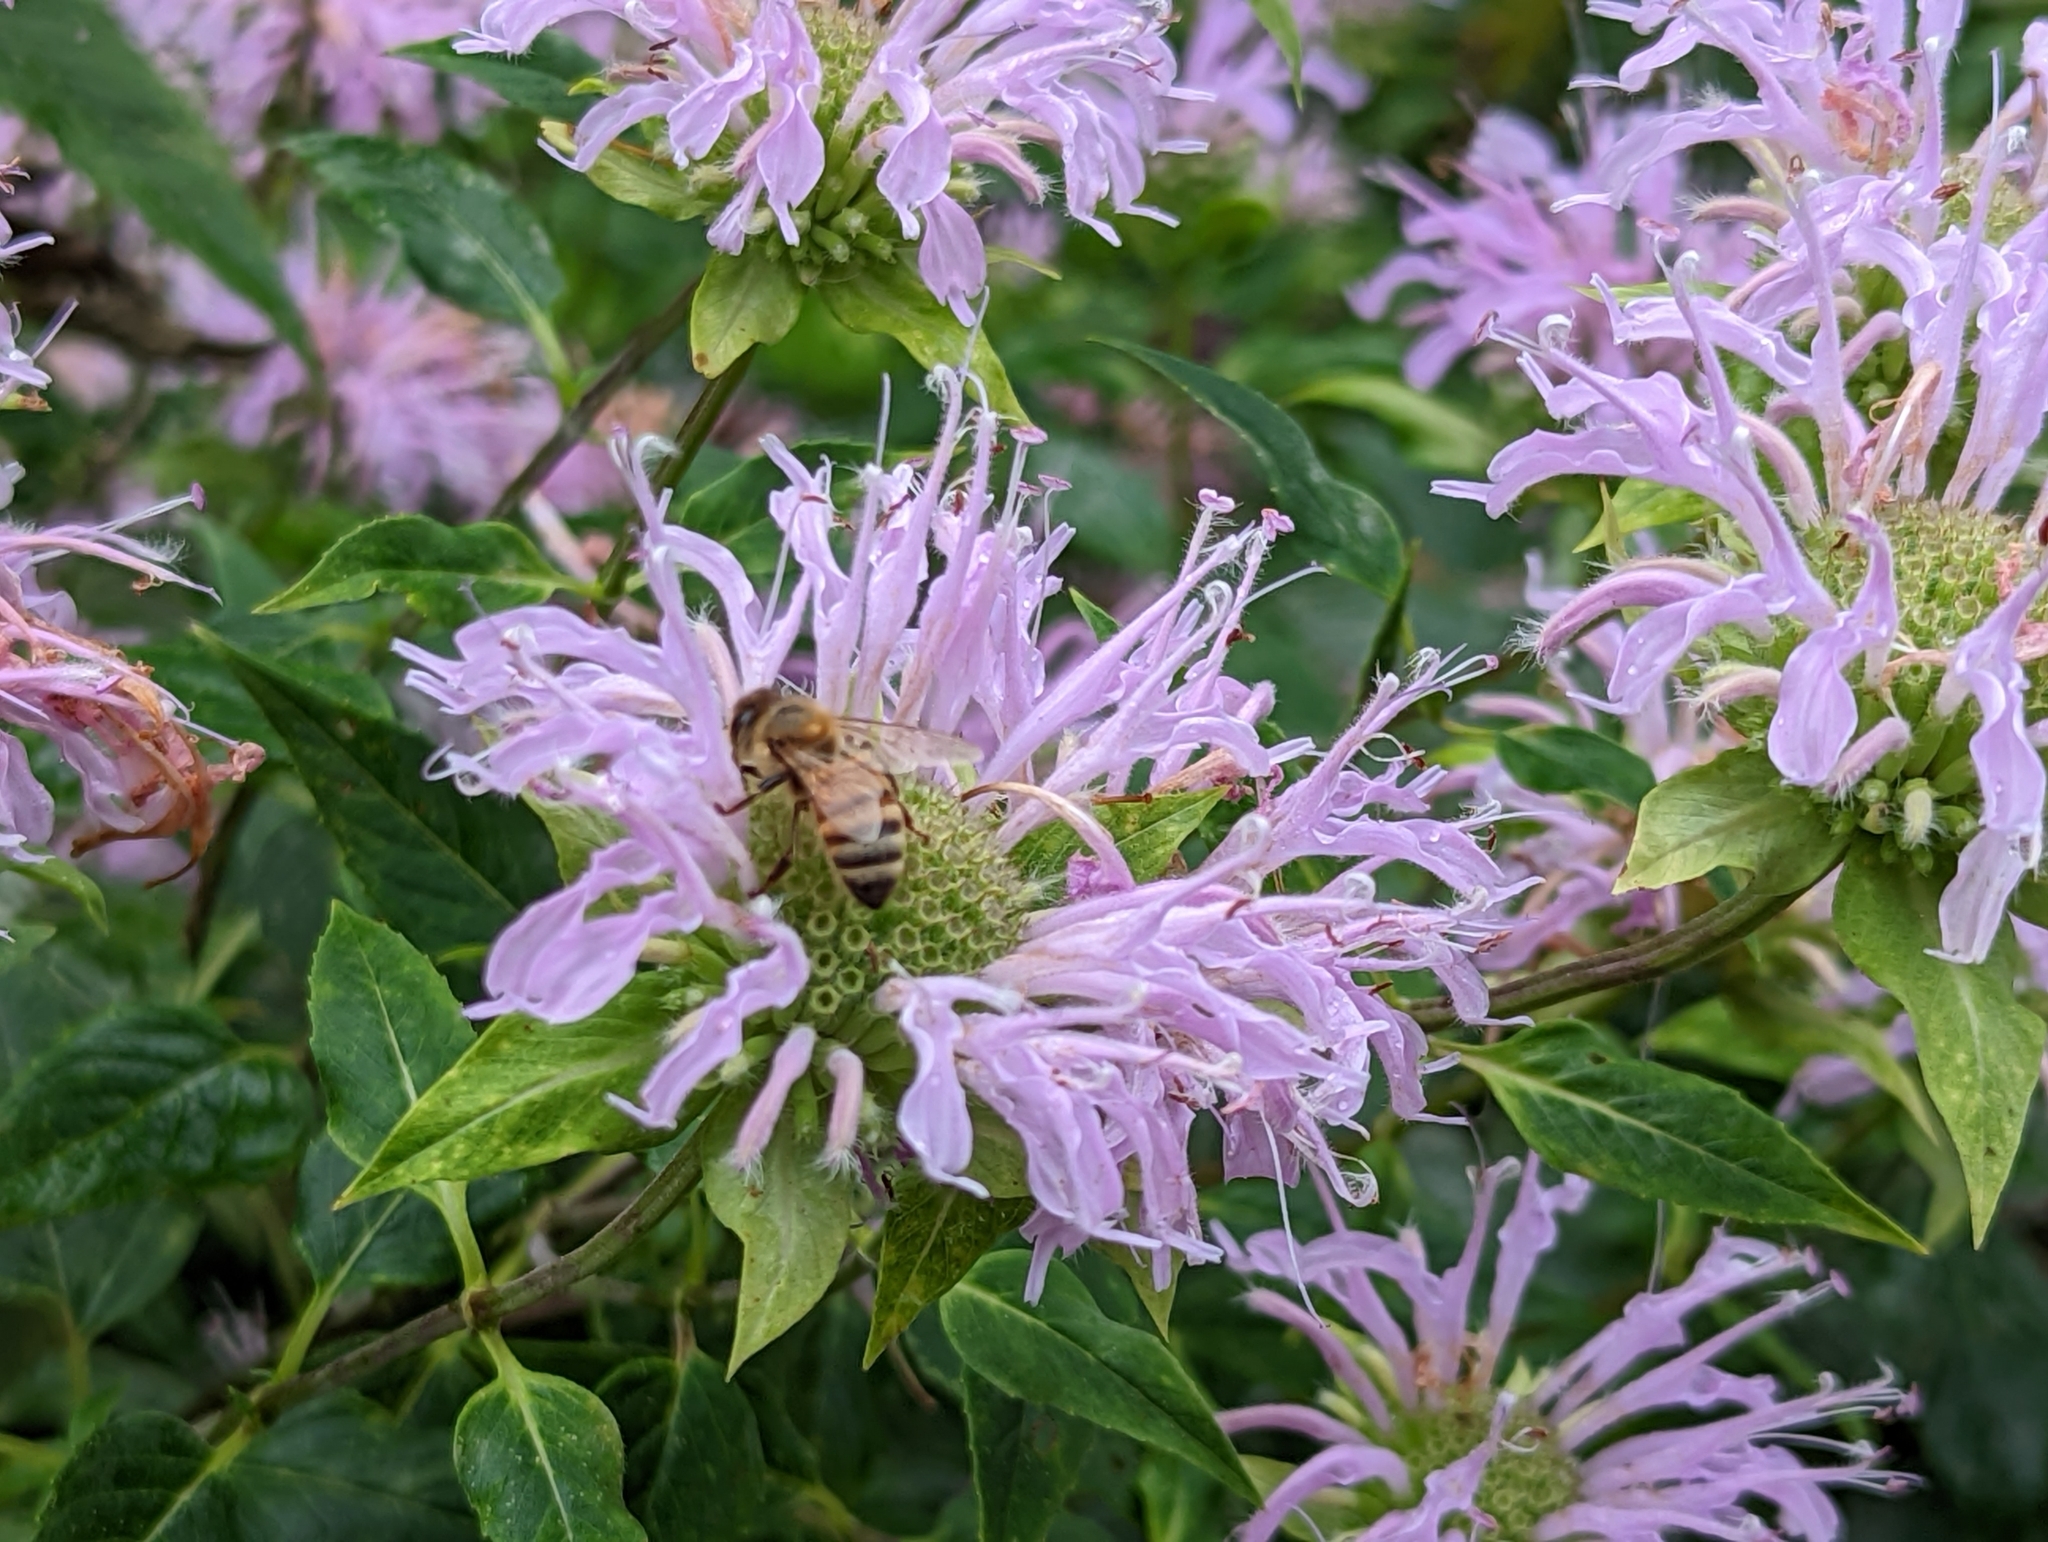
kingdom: Animalia
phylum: Arthropoda
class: Insecta
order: Hymenoptera
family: Apidae
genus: Apis
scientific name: Apis mellifera
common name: Honey bee
